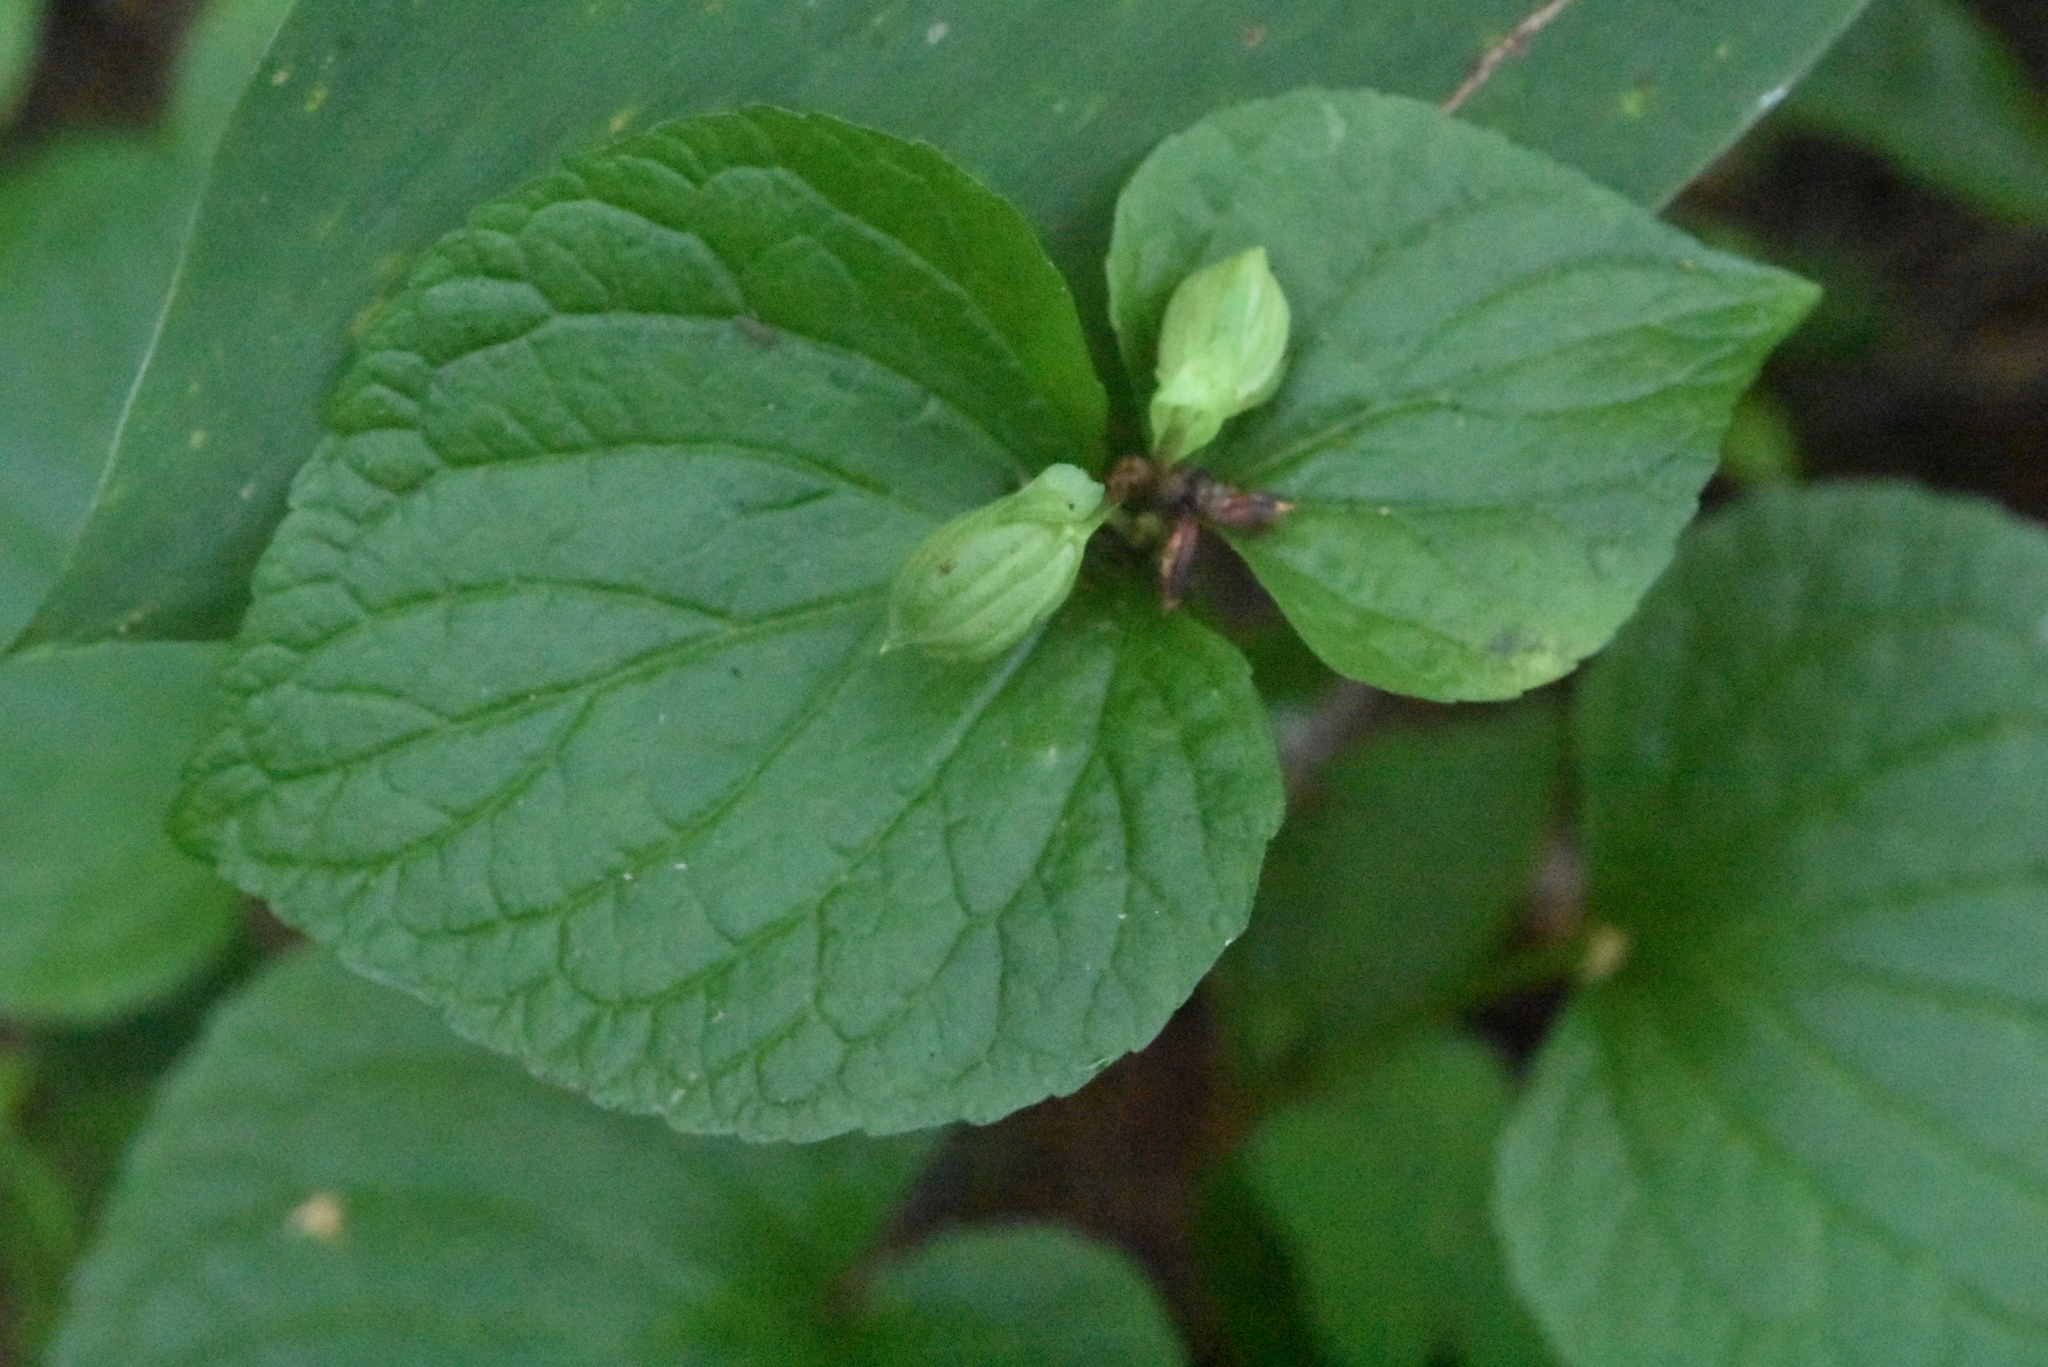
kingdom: Plantae
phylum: Tracheophyta
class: Magnoliopsida
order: Malpighiales
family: Violaceae
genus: Viola
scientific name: Viola mirabilis
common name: Wonder violet
